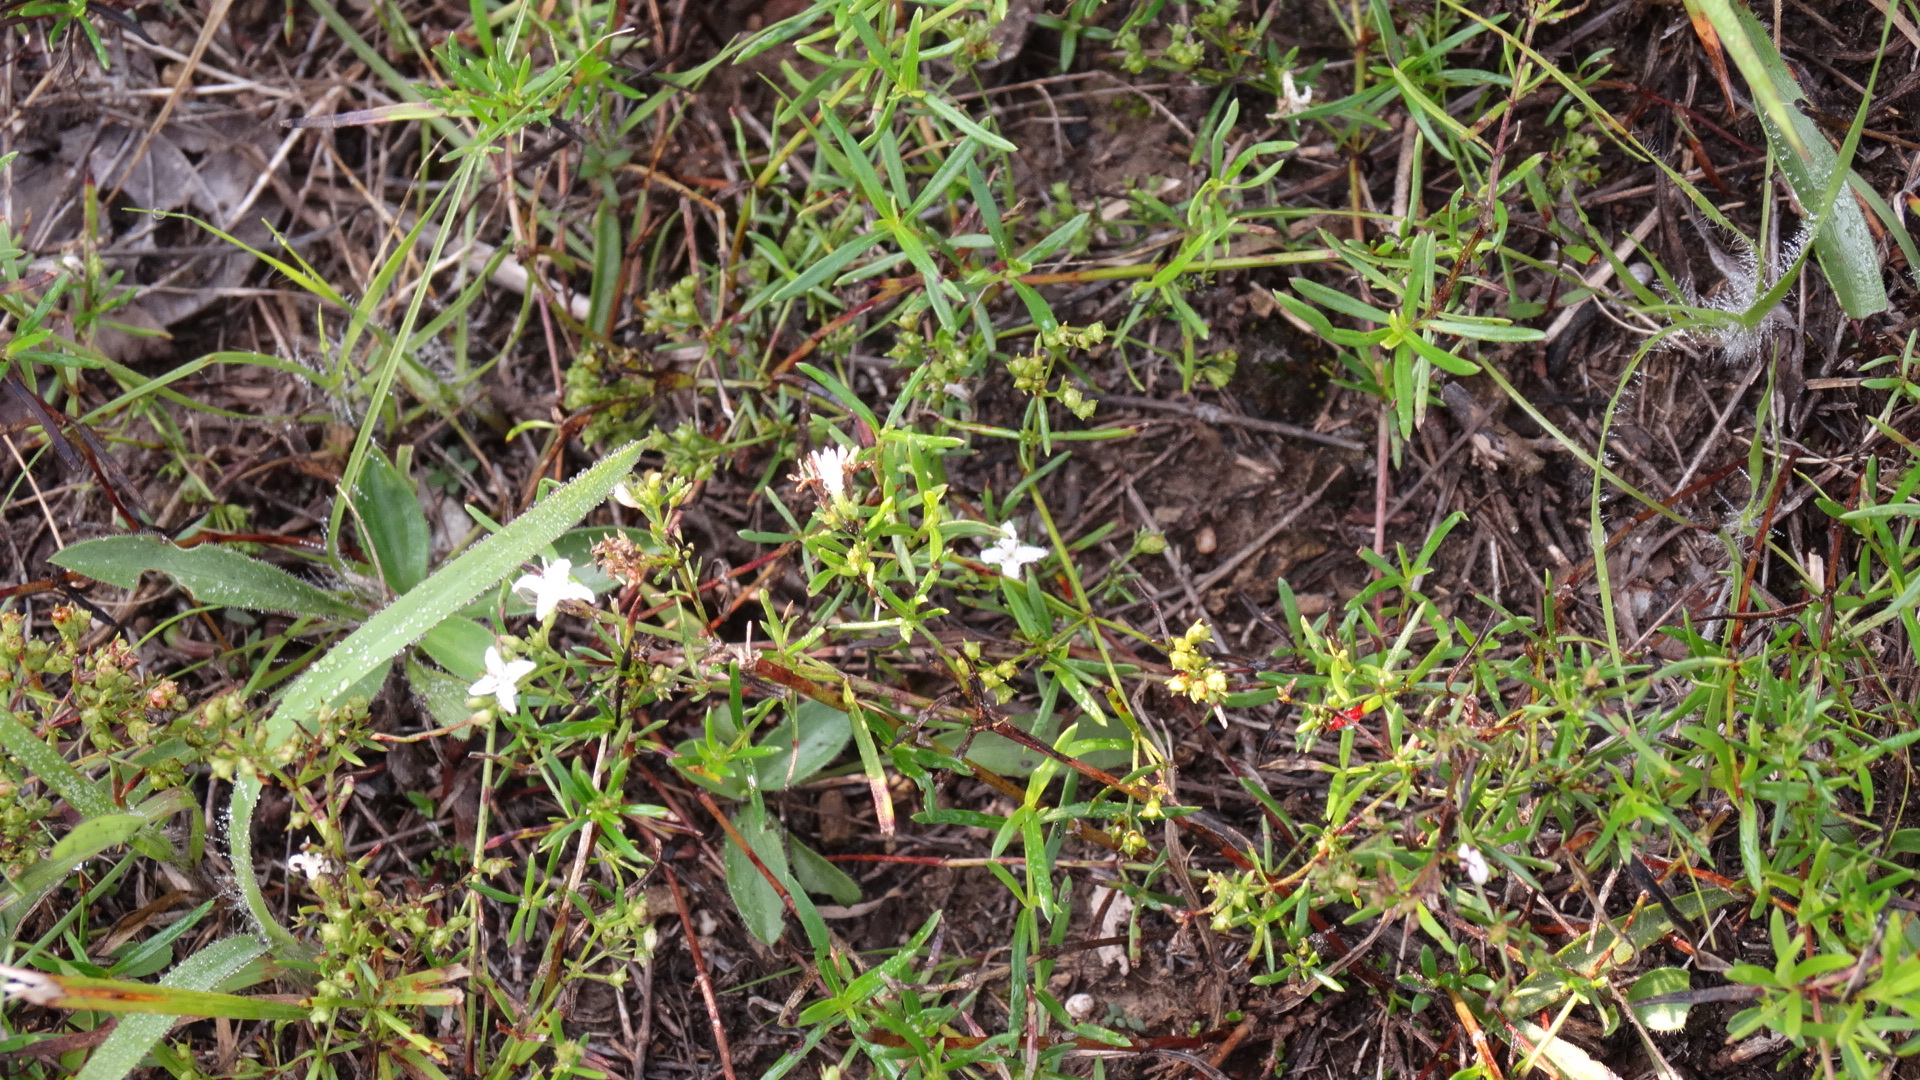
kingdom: Plantae
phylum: Tracheophyta
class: Magnoliopsida
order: Gentianales
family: Rubiaceae
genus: Houstonia
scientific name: Houstonia longifolia
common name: Long-leaved bluets
